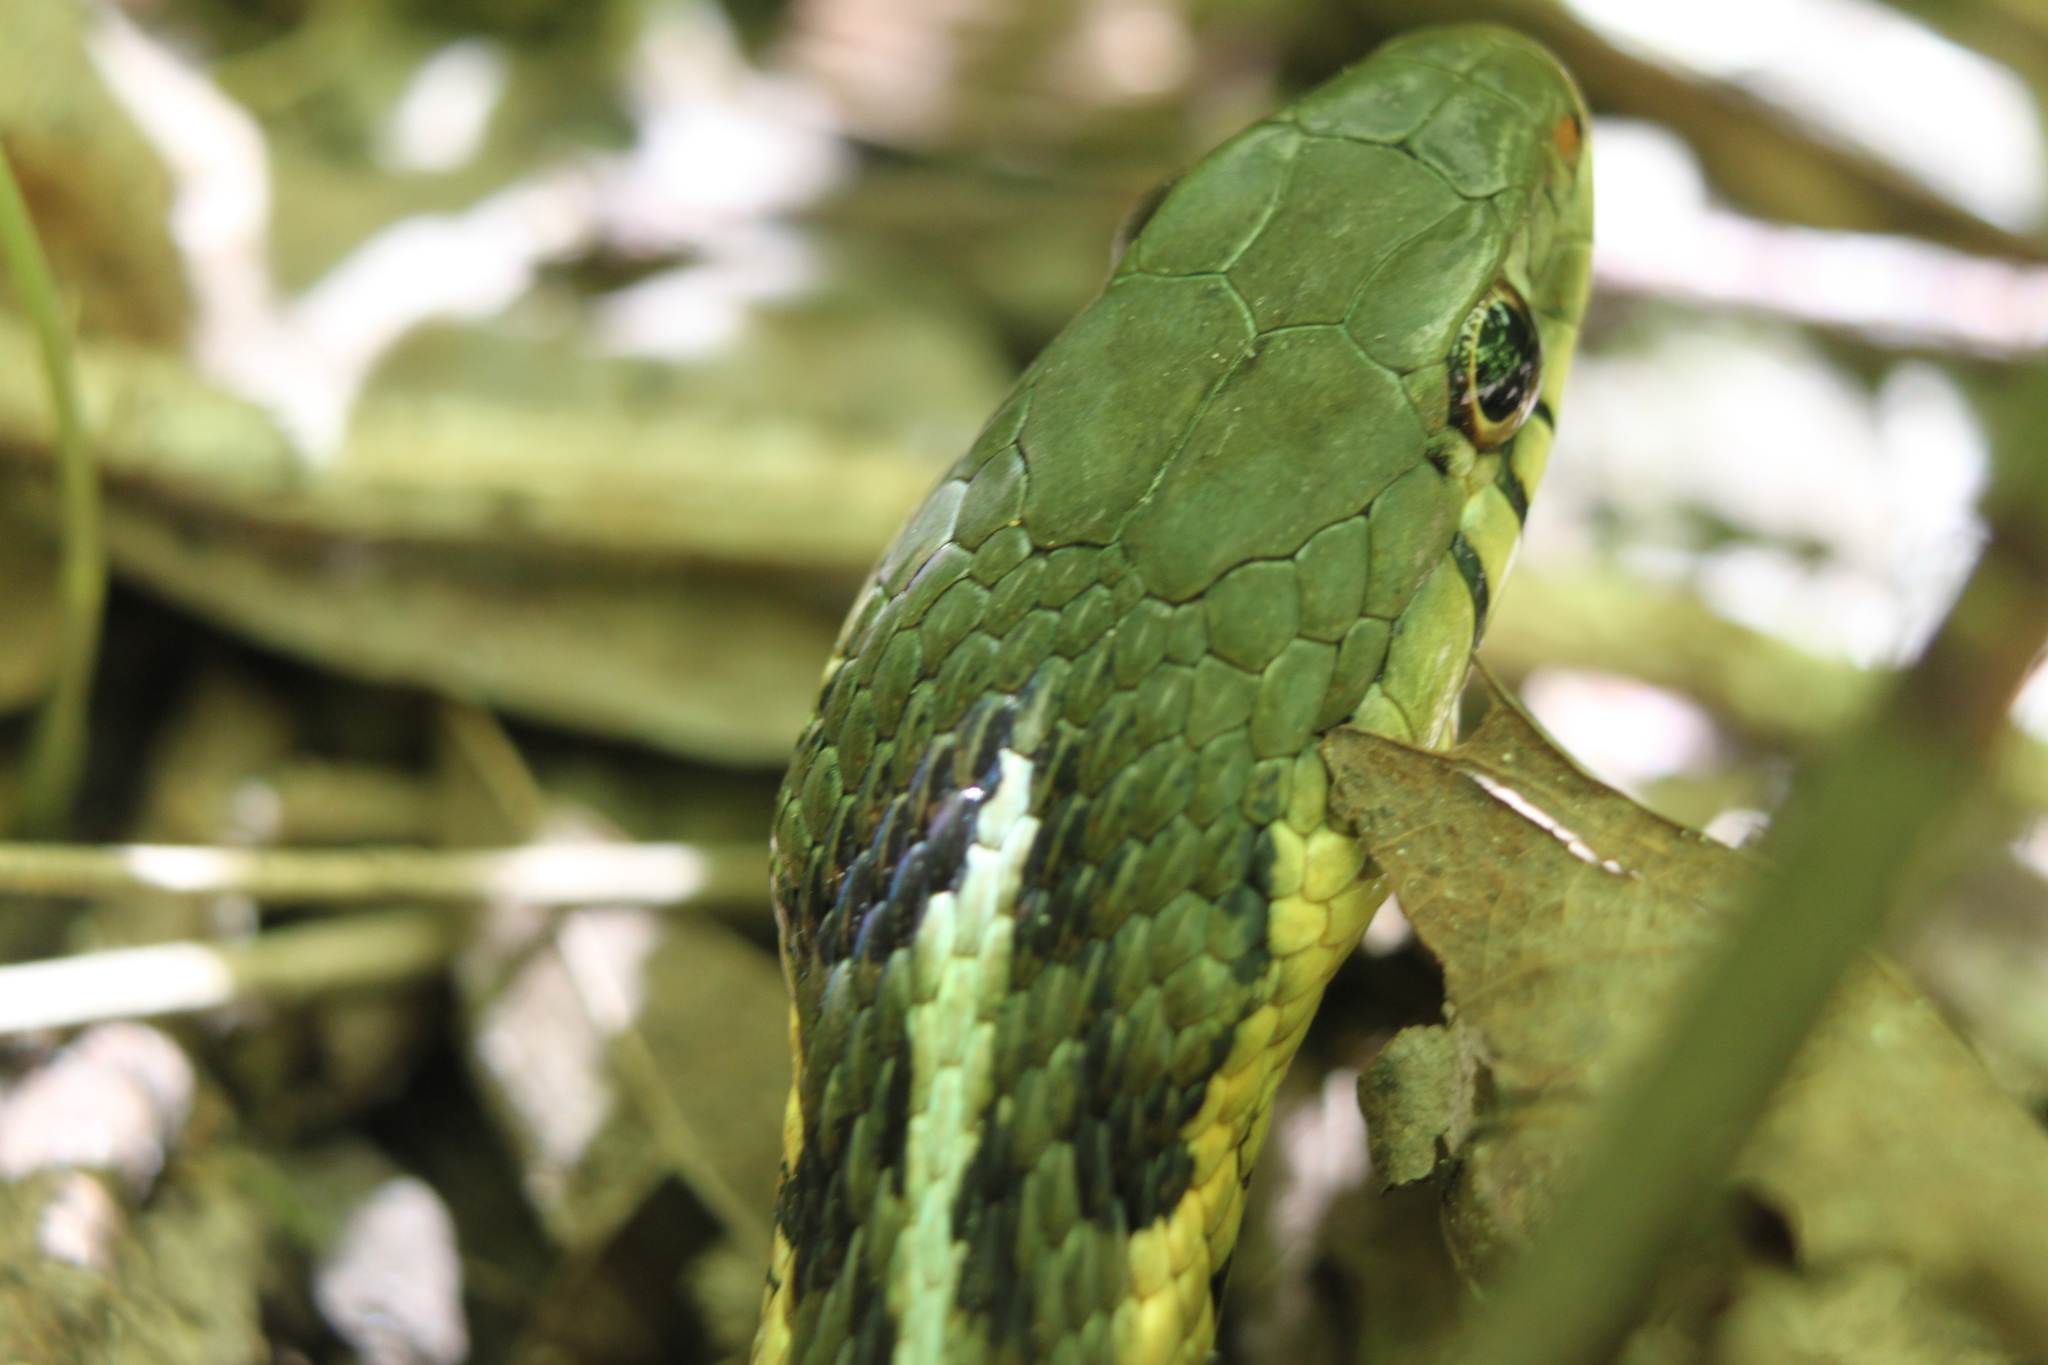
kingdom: Animalia
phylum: Chordata
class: Squamata
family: Colubridae
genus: Thamnophis
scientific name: Thamnophis sirtalis
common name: Common garter snake
